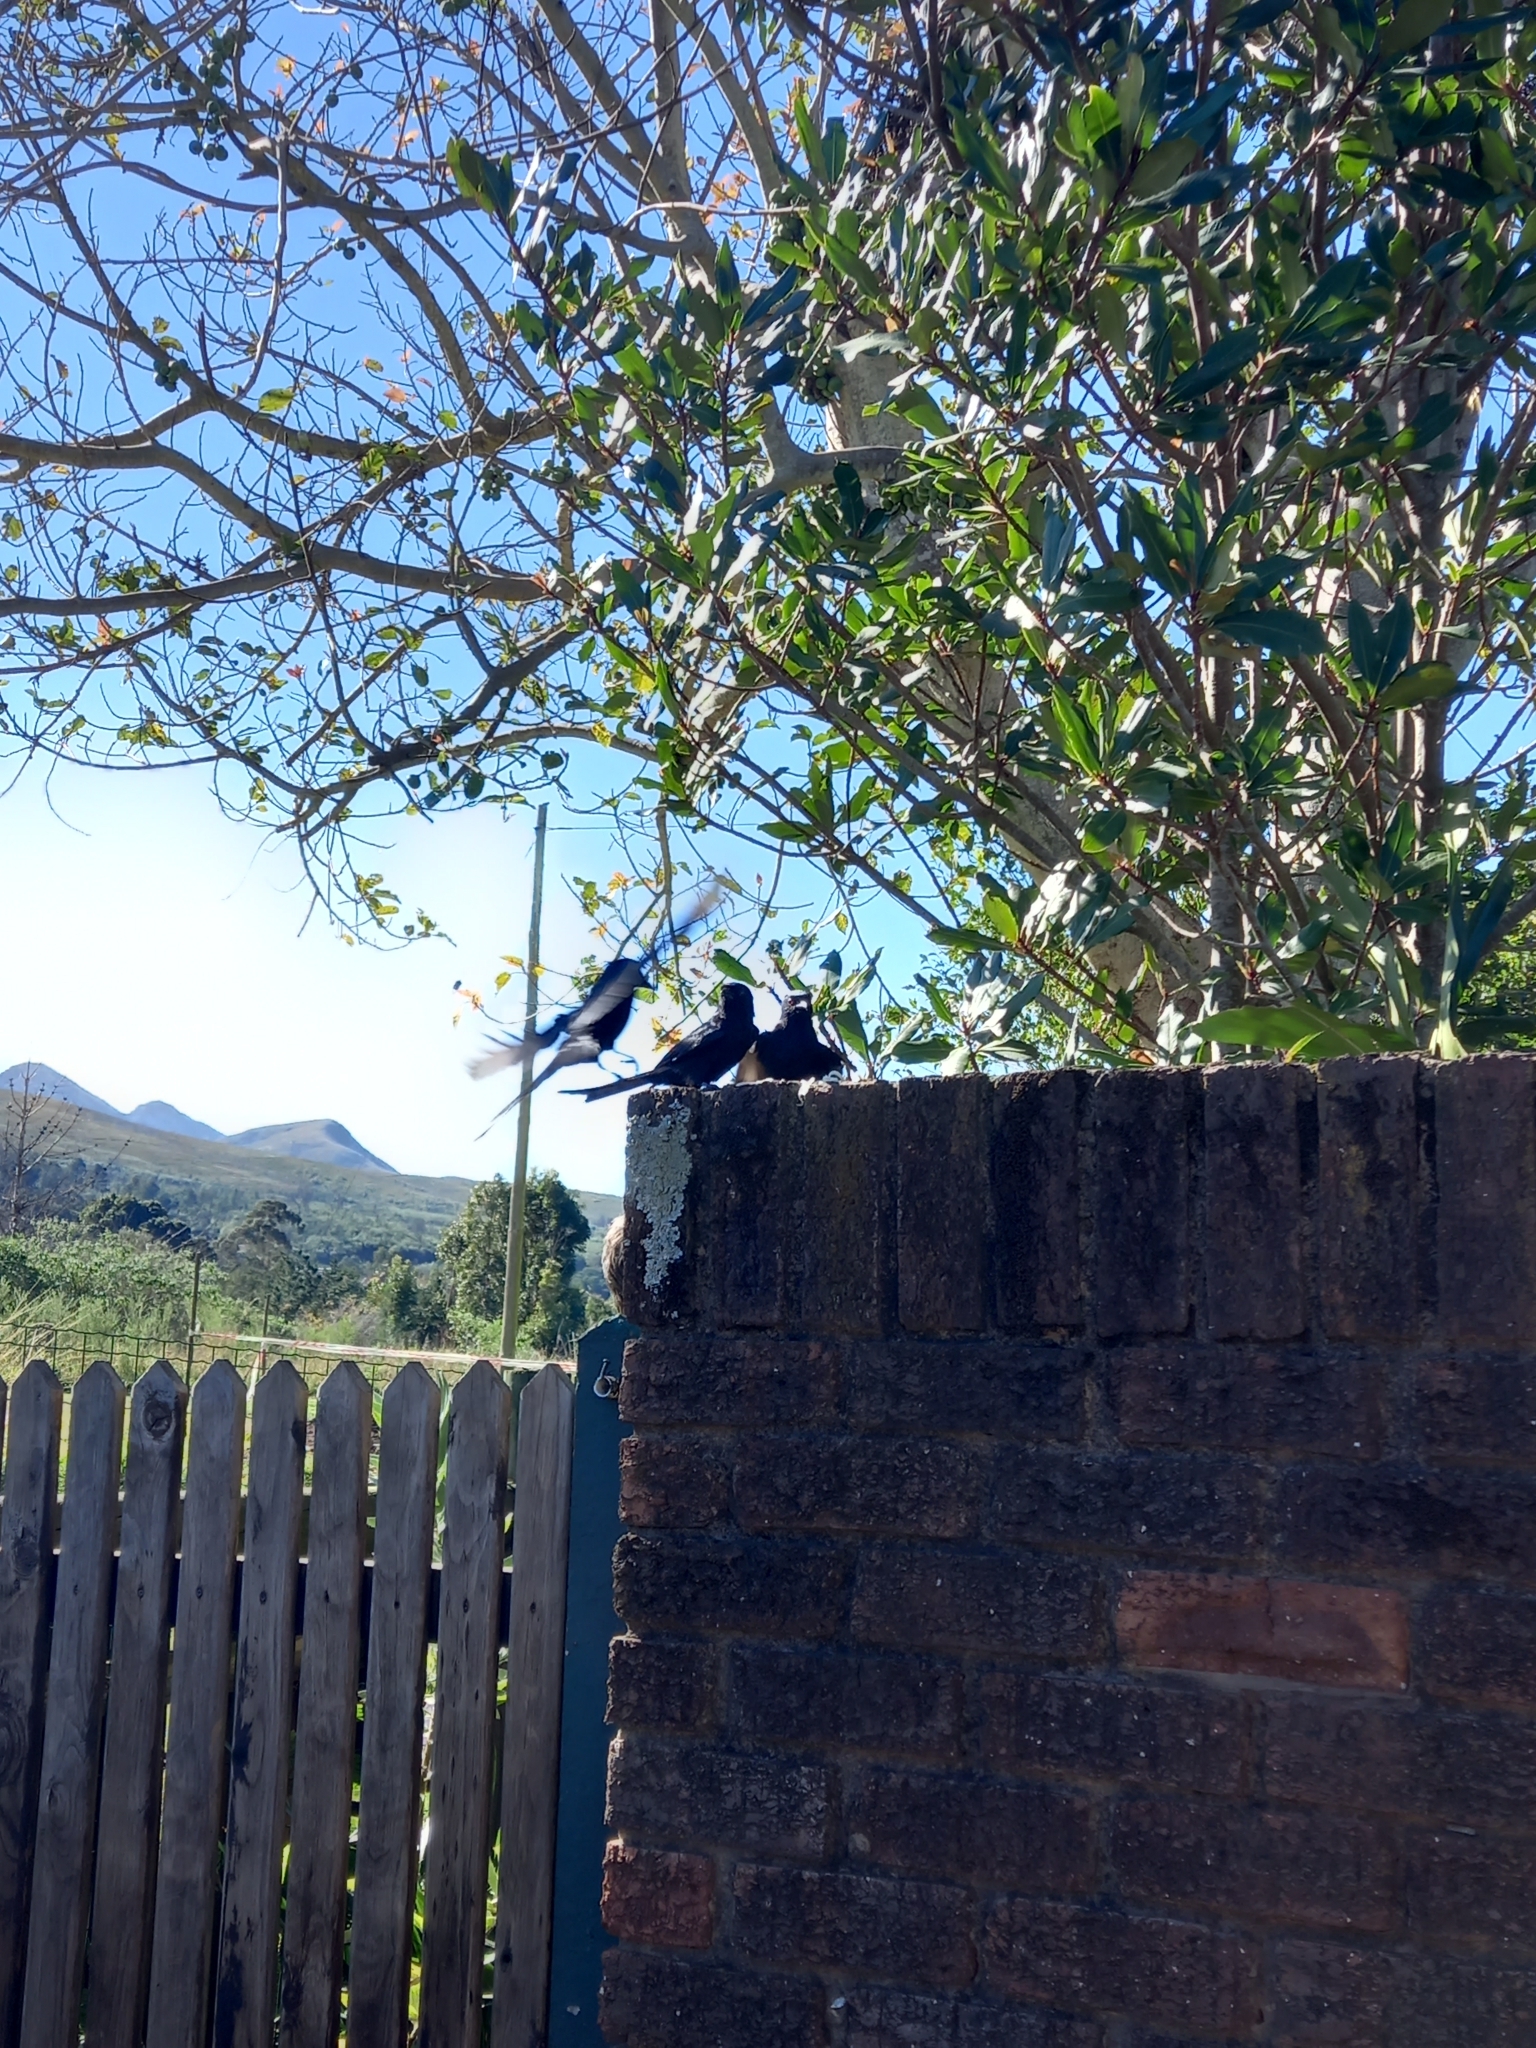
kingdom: Animalia
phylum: Chordata
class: Aves
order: Passeriformes
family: Dicruridae
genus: Dicrurus
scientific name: Dicrurus adsimilis
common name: Fork-tailed drongo
